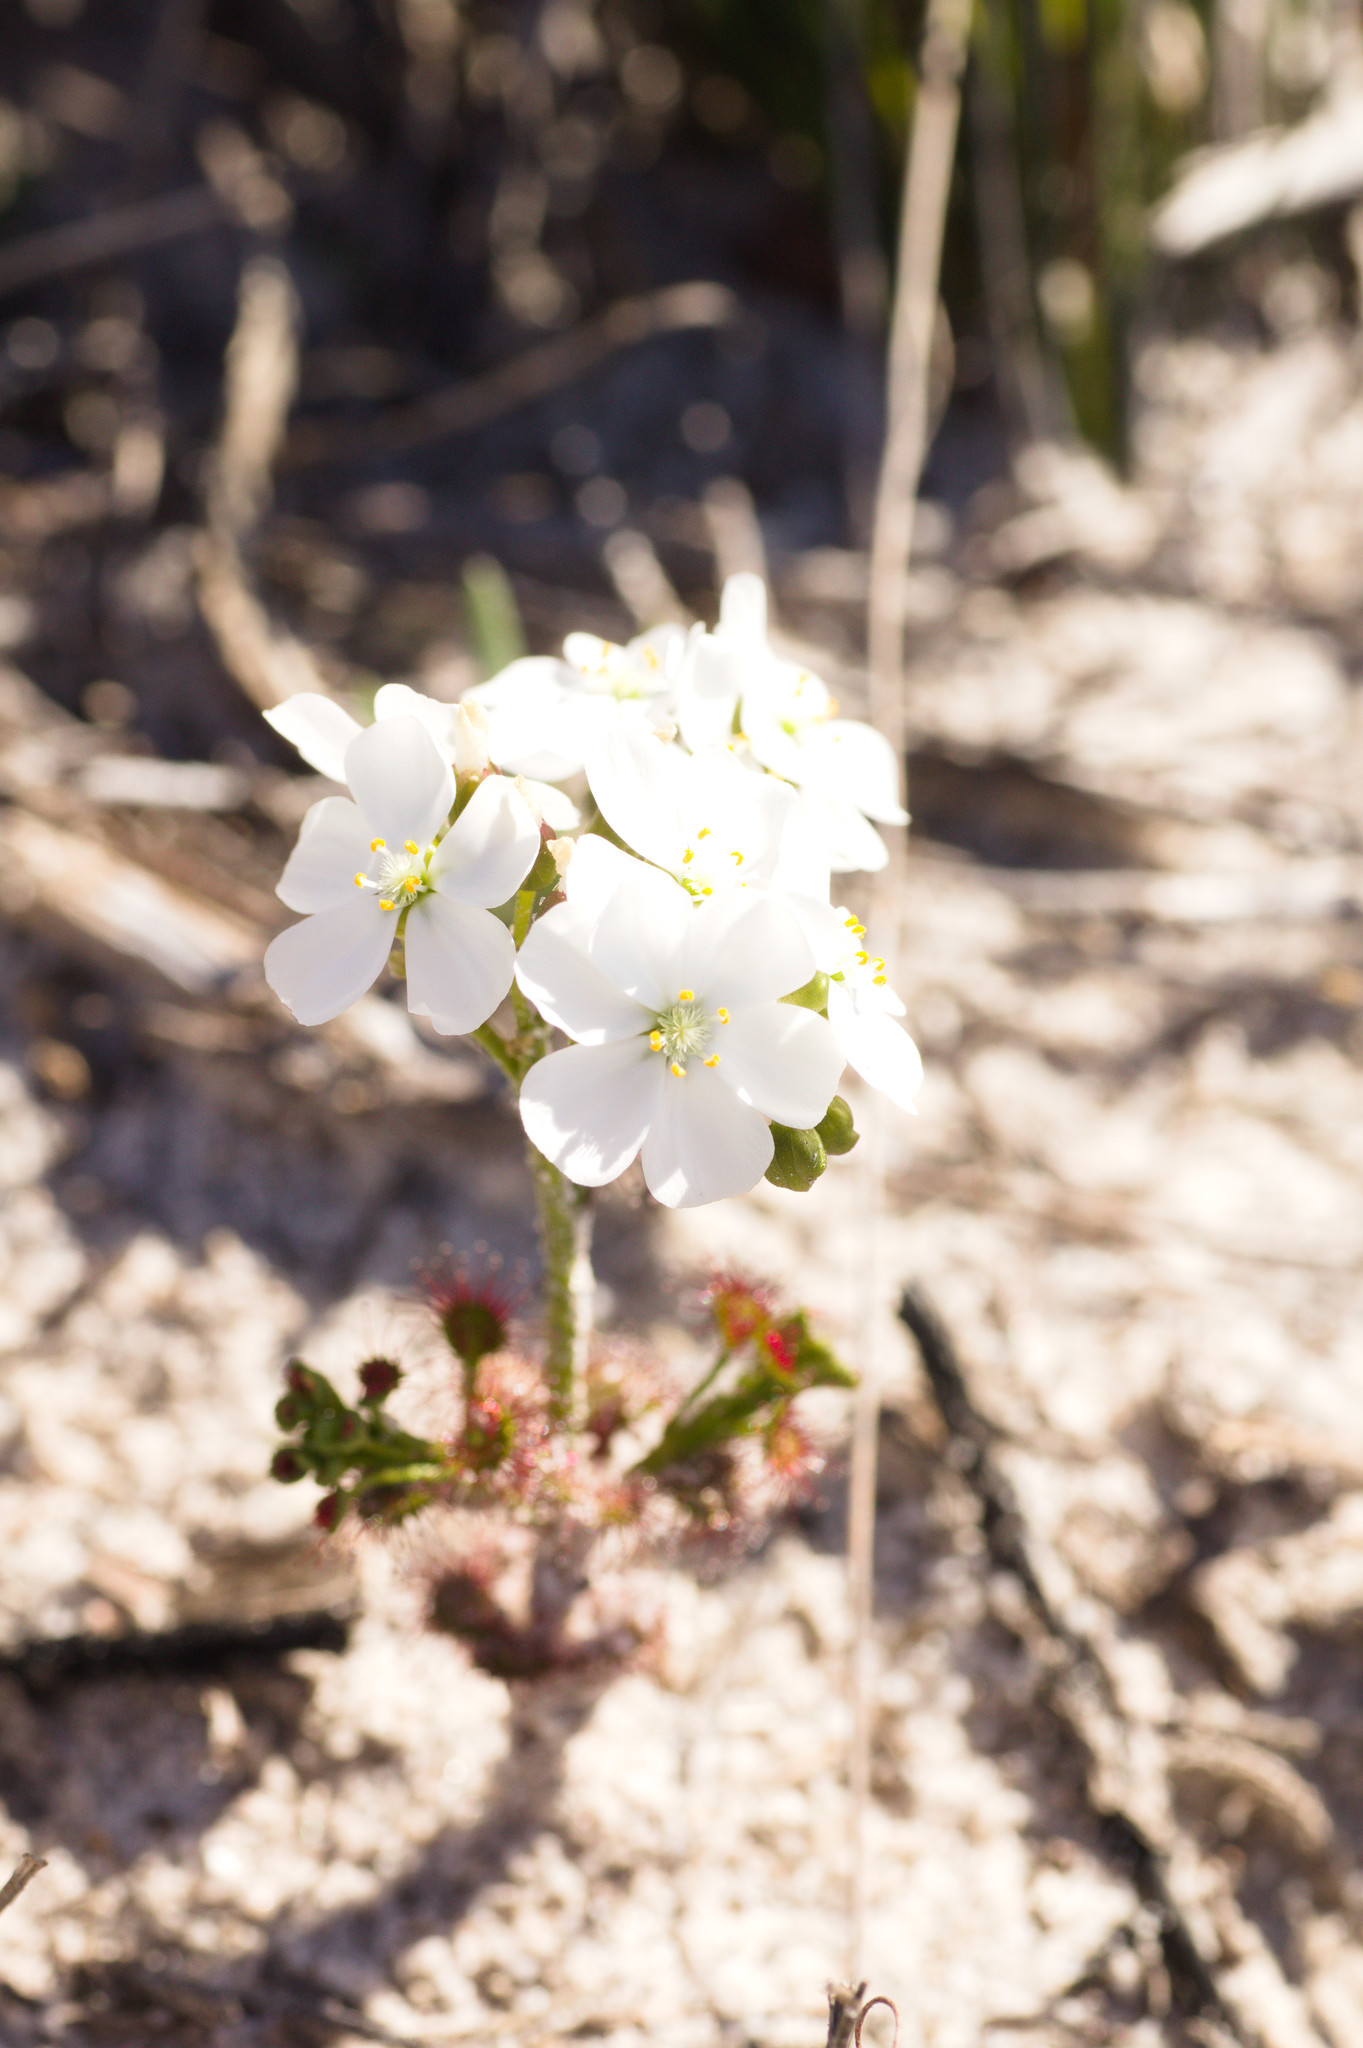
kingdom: Plantae
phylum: Tracheophyta
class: Magnoliopsida
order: Caryophyllales
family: Droseraceae
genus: Drosera
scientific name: Drosera stolonifera
